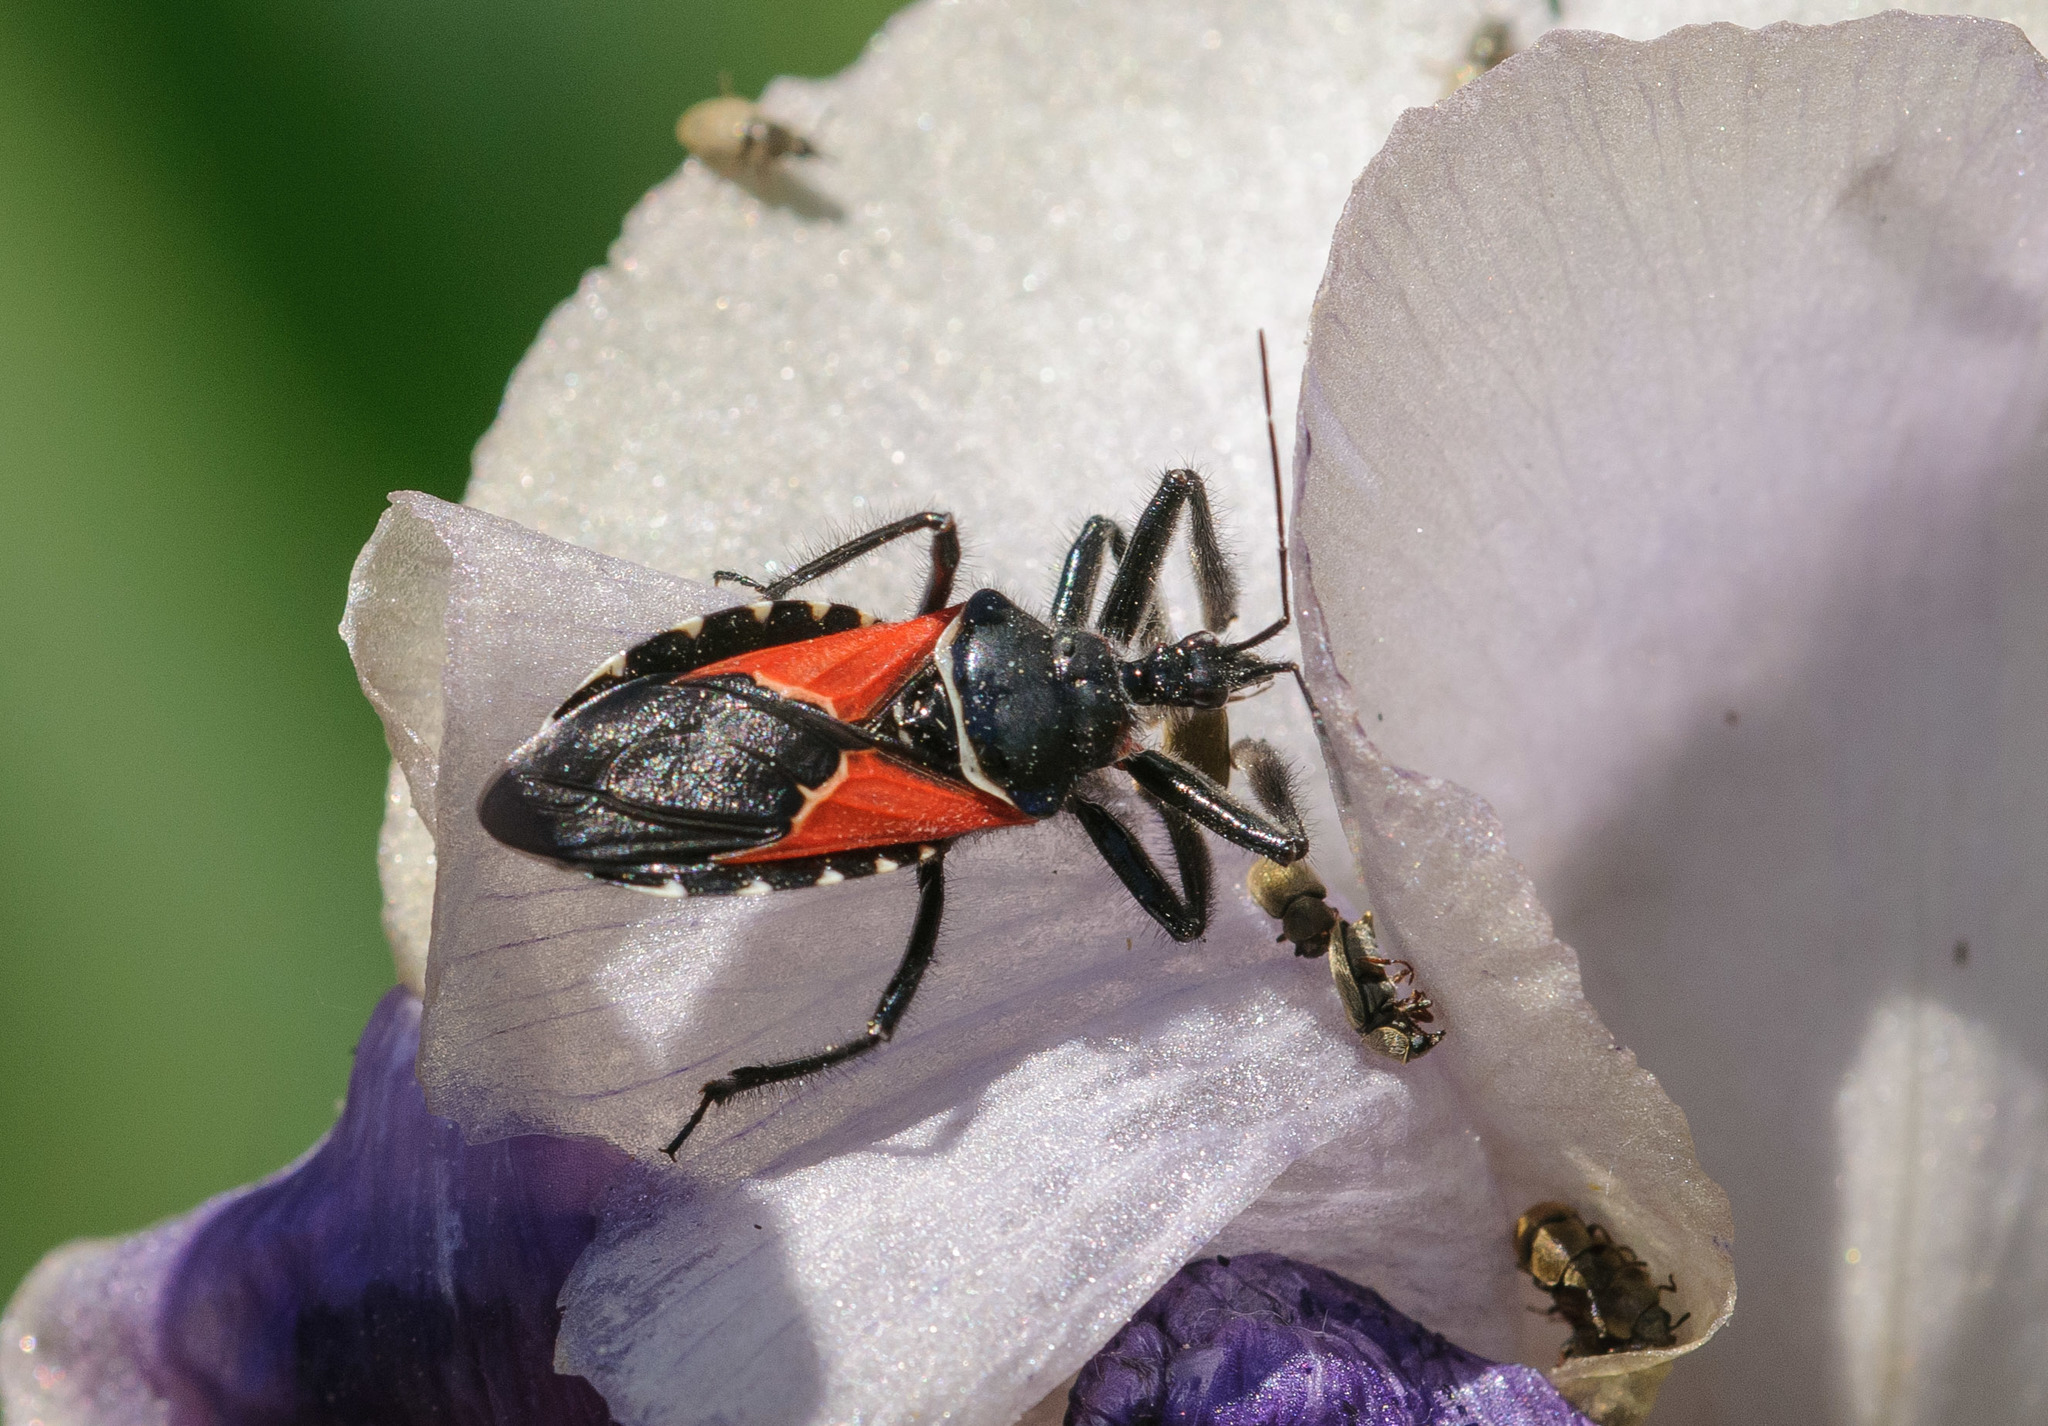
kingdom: Animalia
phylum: Arthropoda
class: Insecta
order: Hemiptera
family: Reduviidae
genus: Apiomerus
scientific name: Apiomerus montanus
